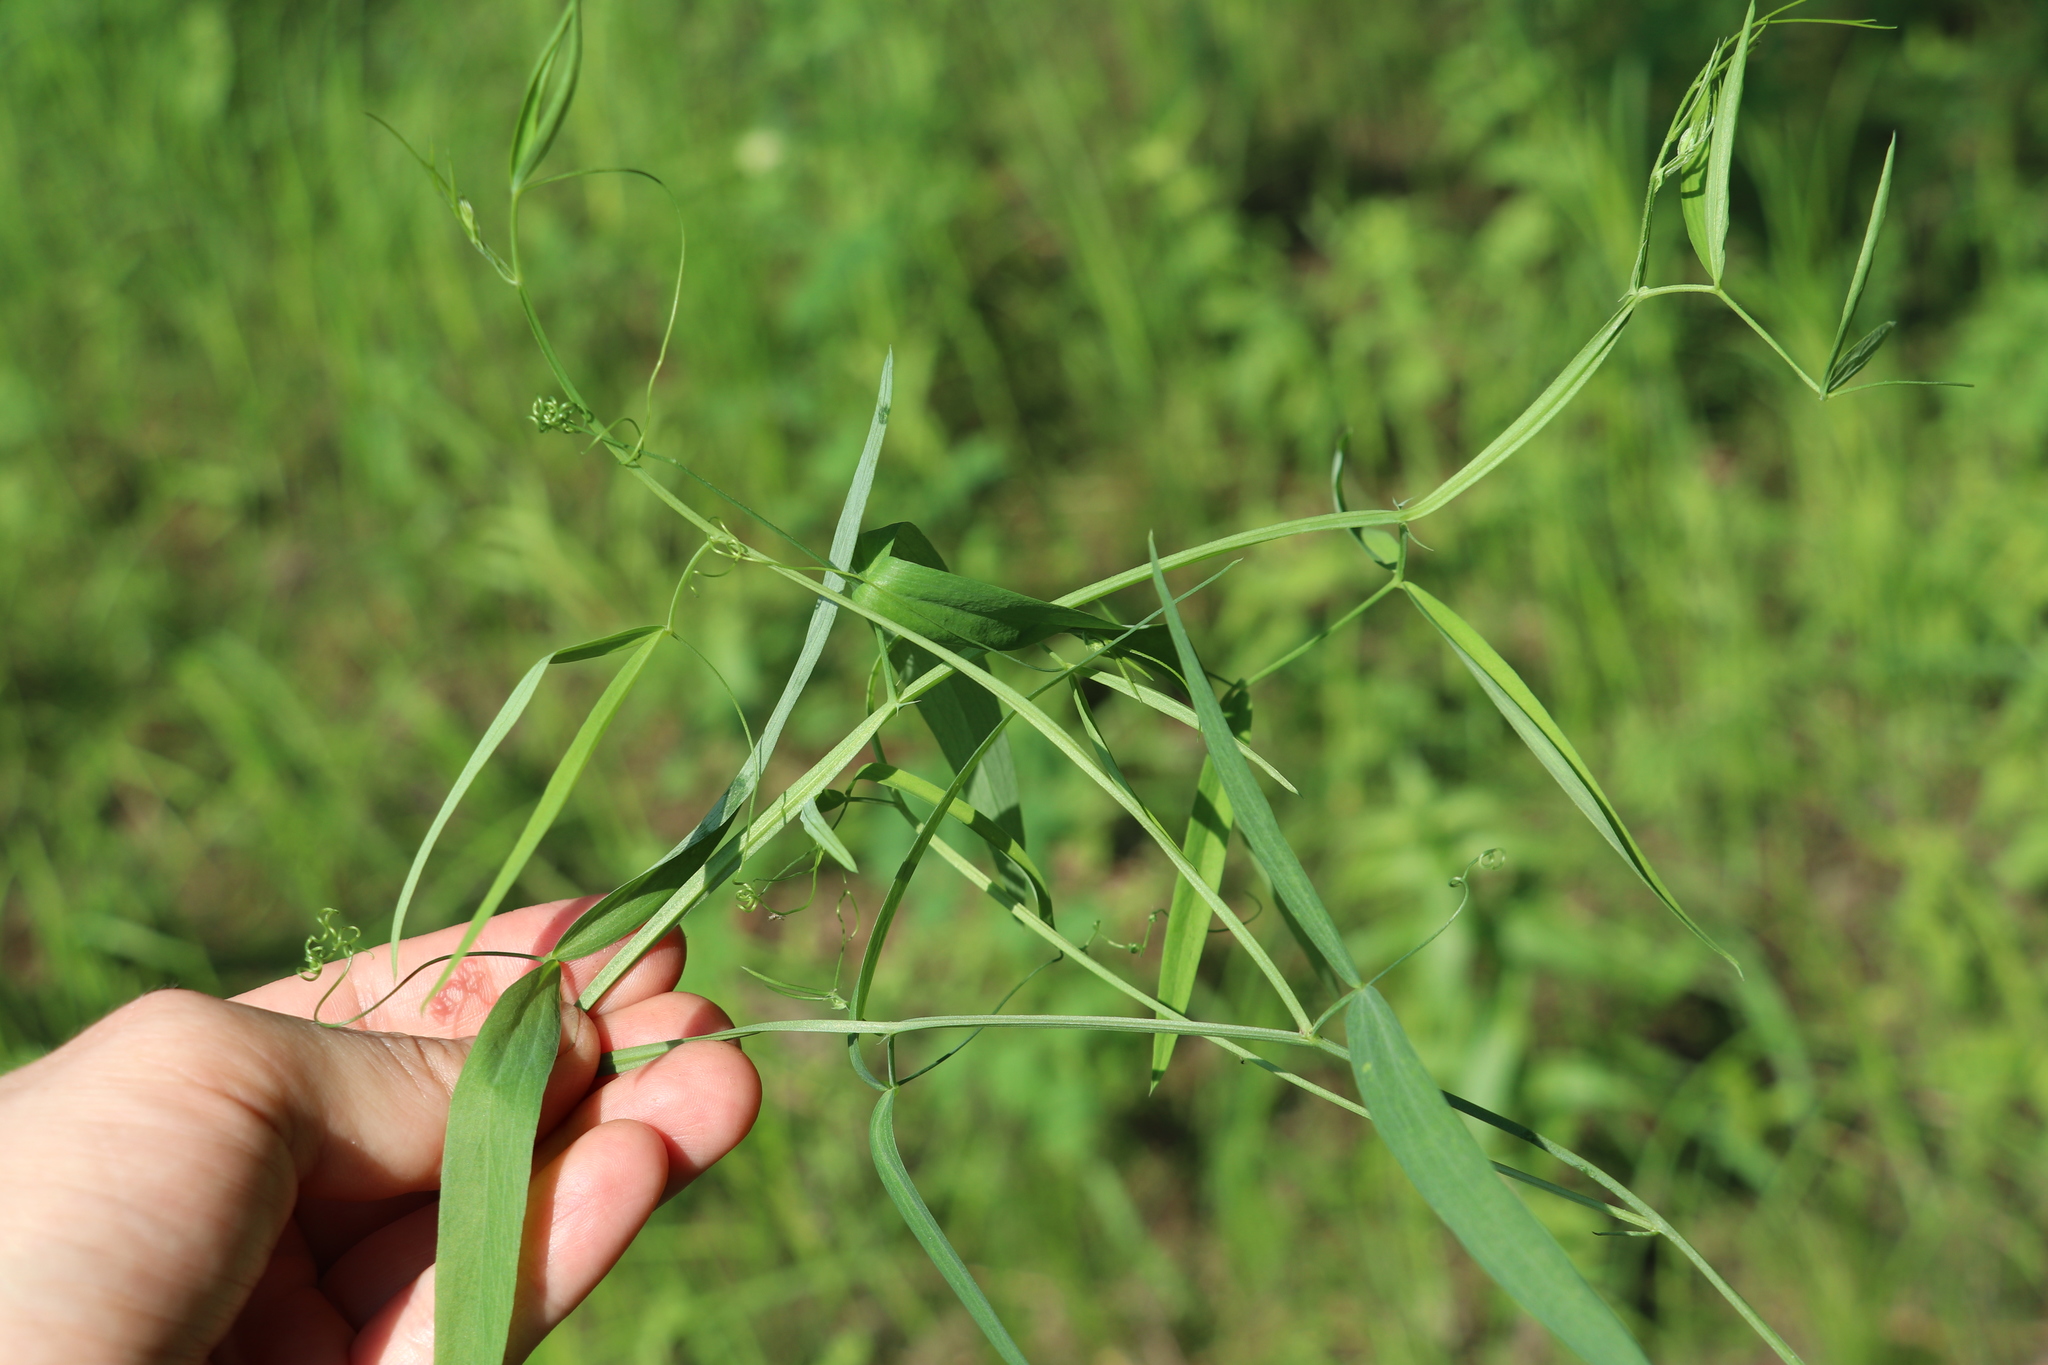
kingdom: Plantae
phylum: Tracheophyta
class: Magnoliopsida
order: Fabales
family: Fabaceae
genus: Lathyrus
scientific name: Lathyrus palustris
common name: Marsh pea
